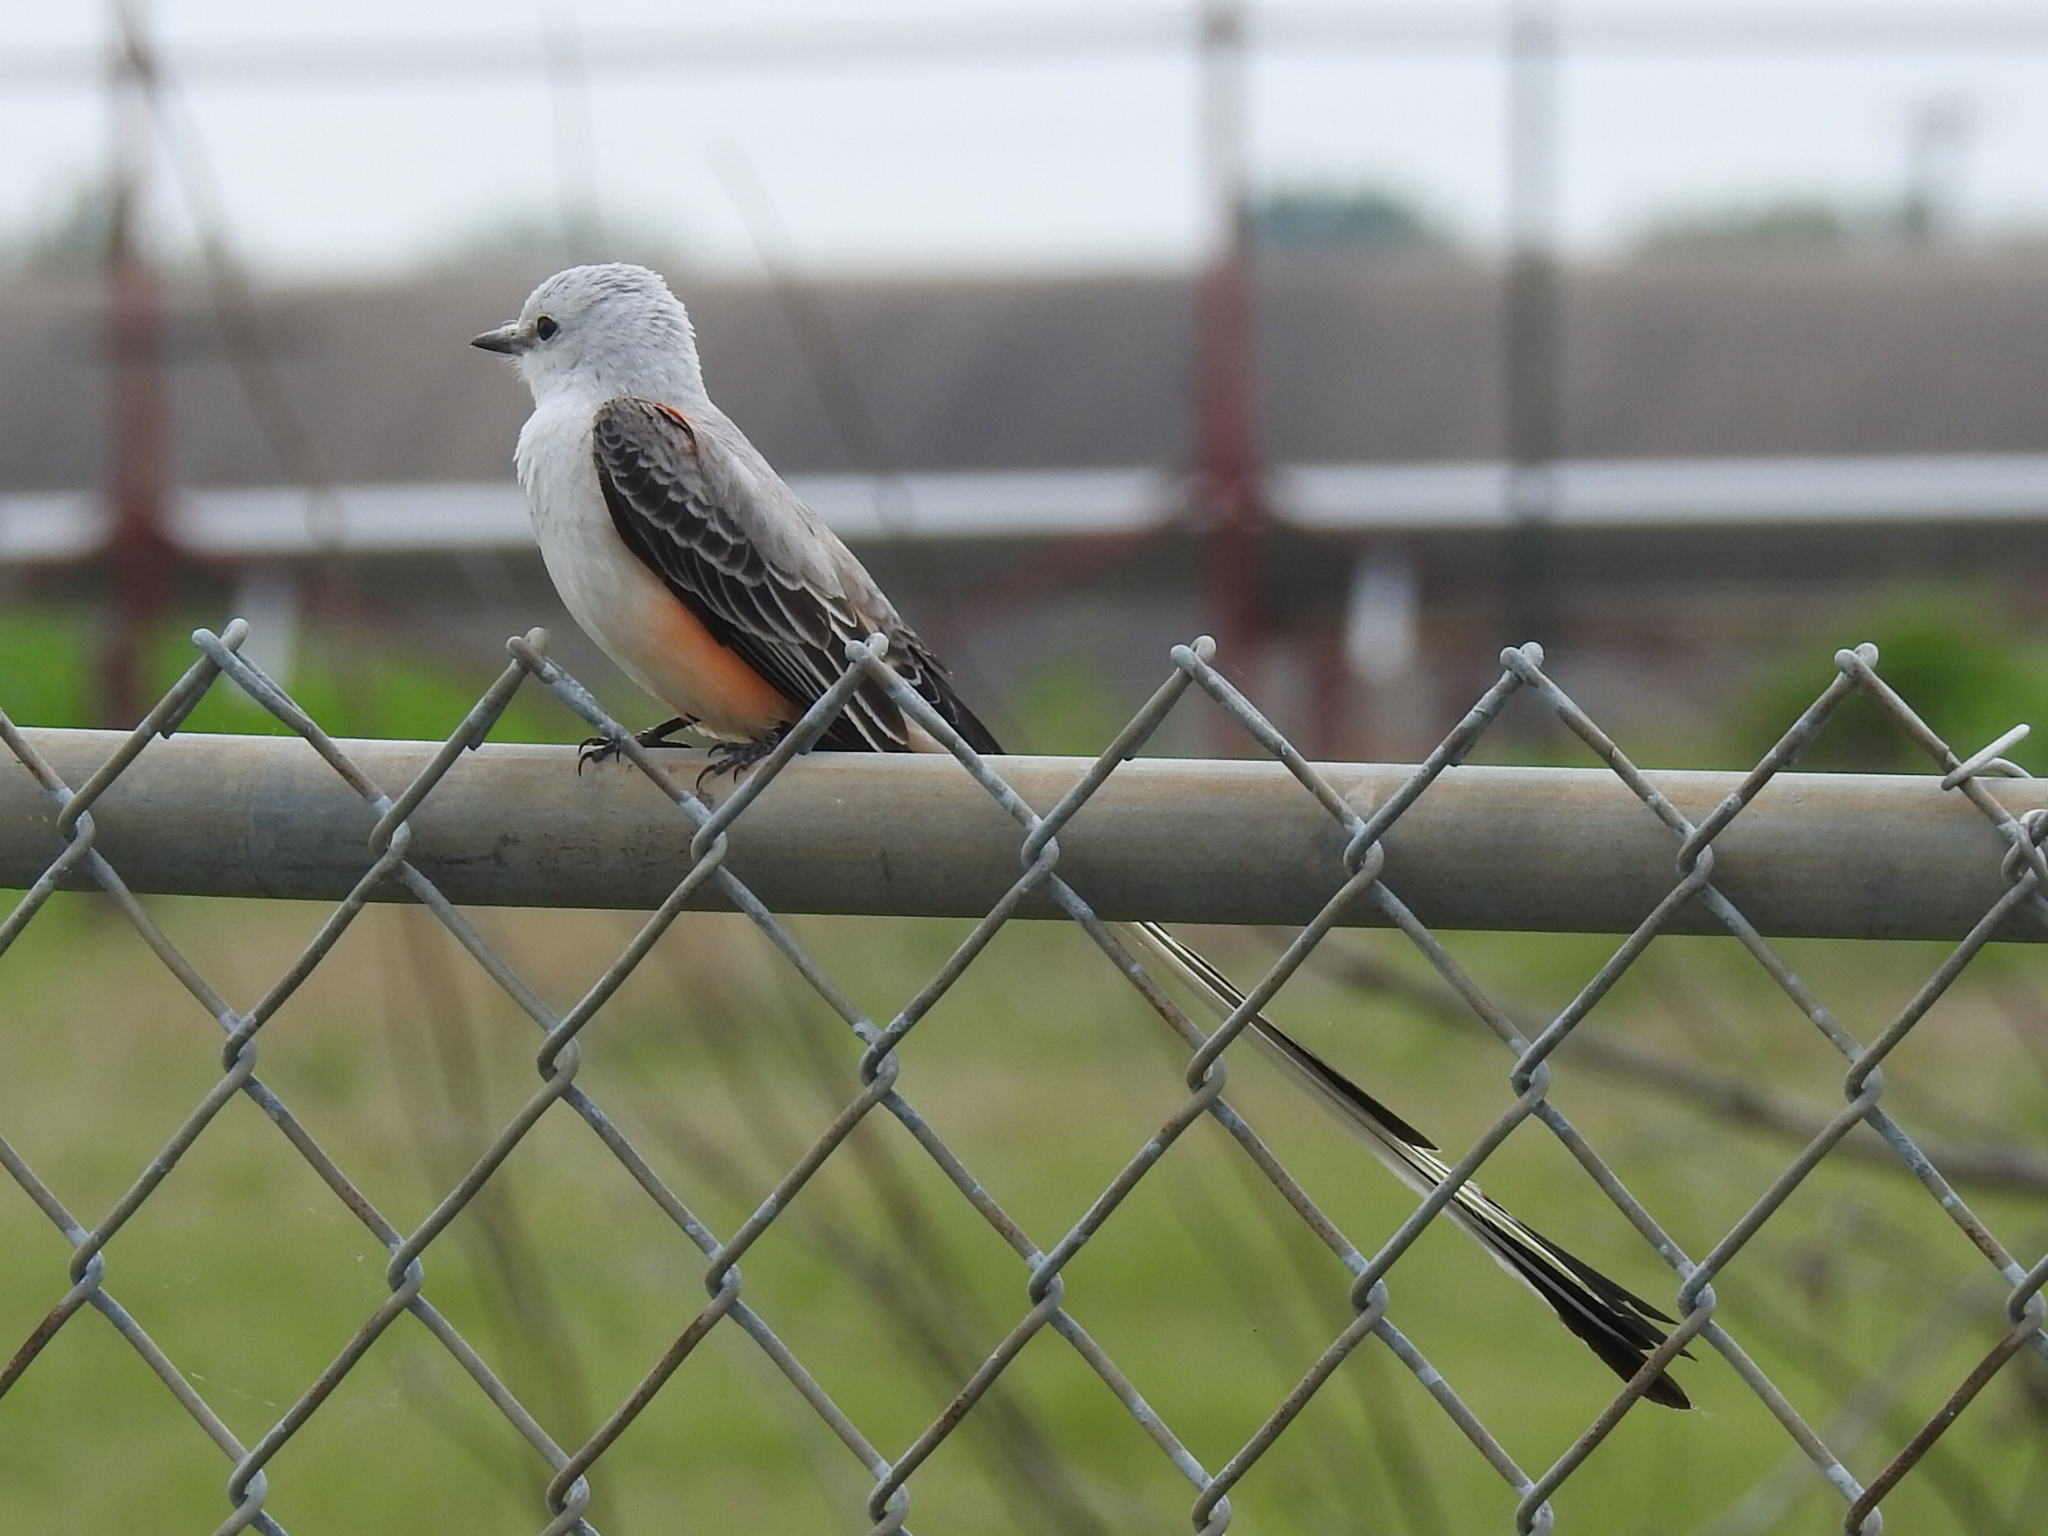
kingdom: Animalia
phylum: Chordata
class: Aves
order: Passeriformes
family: Tyrannidae
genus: Tyrannus
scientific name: Tyrannus forficatus
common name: Scissor-tailed flycatcher
